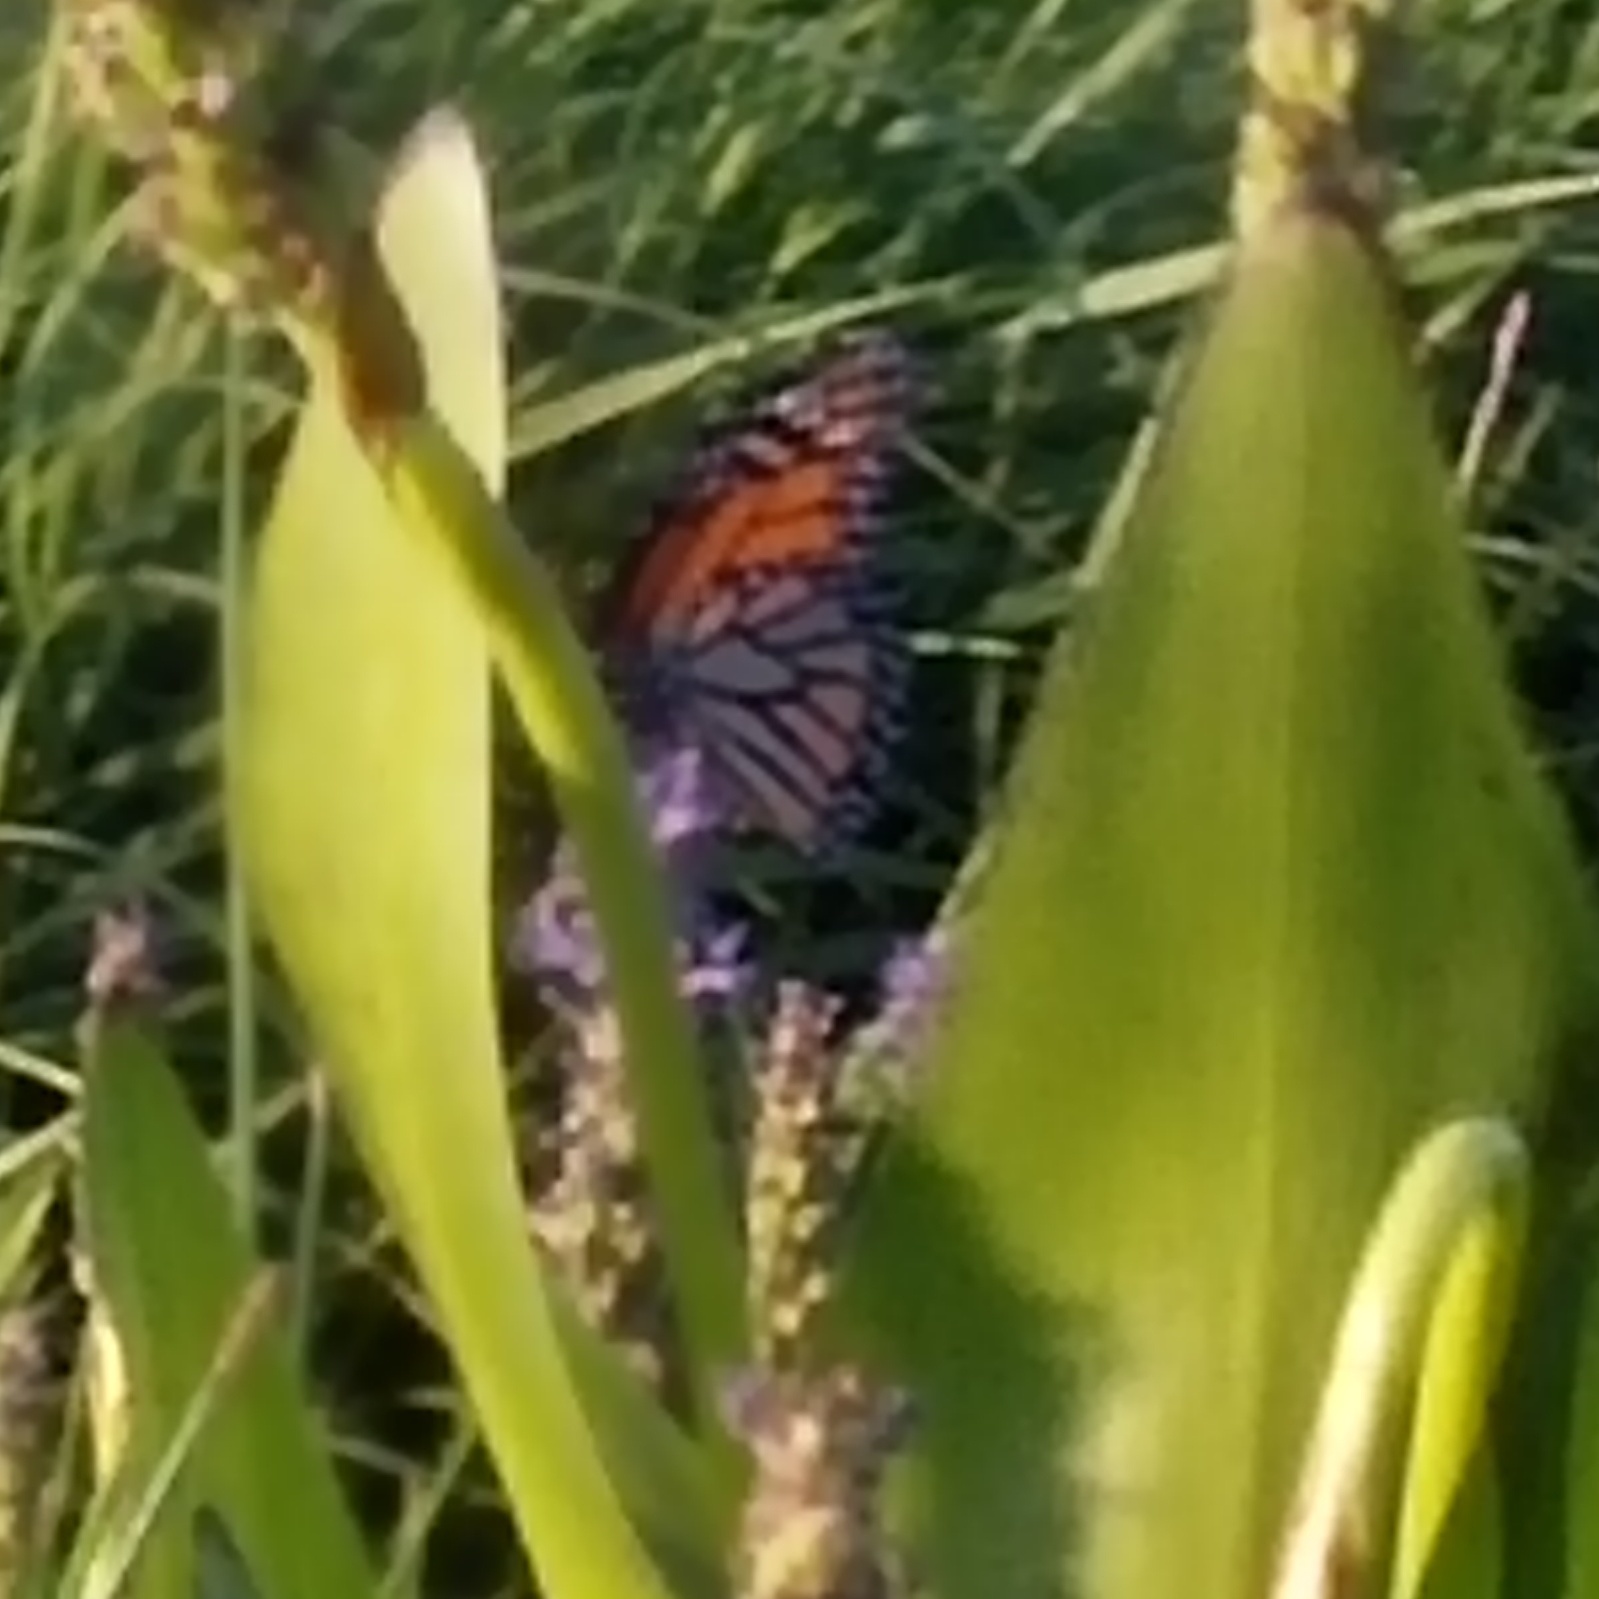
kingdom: Animalia
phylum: Arthropoda
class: Insecta
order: Lepidoptera
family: Nymphalidae
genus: Danaus
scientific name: Danaus plexippus
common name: Monarch
